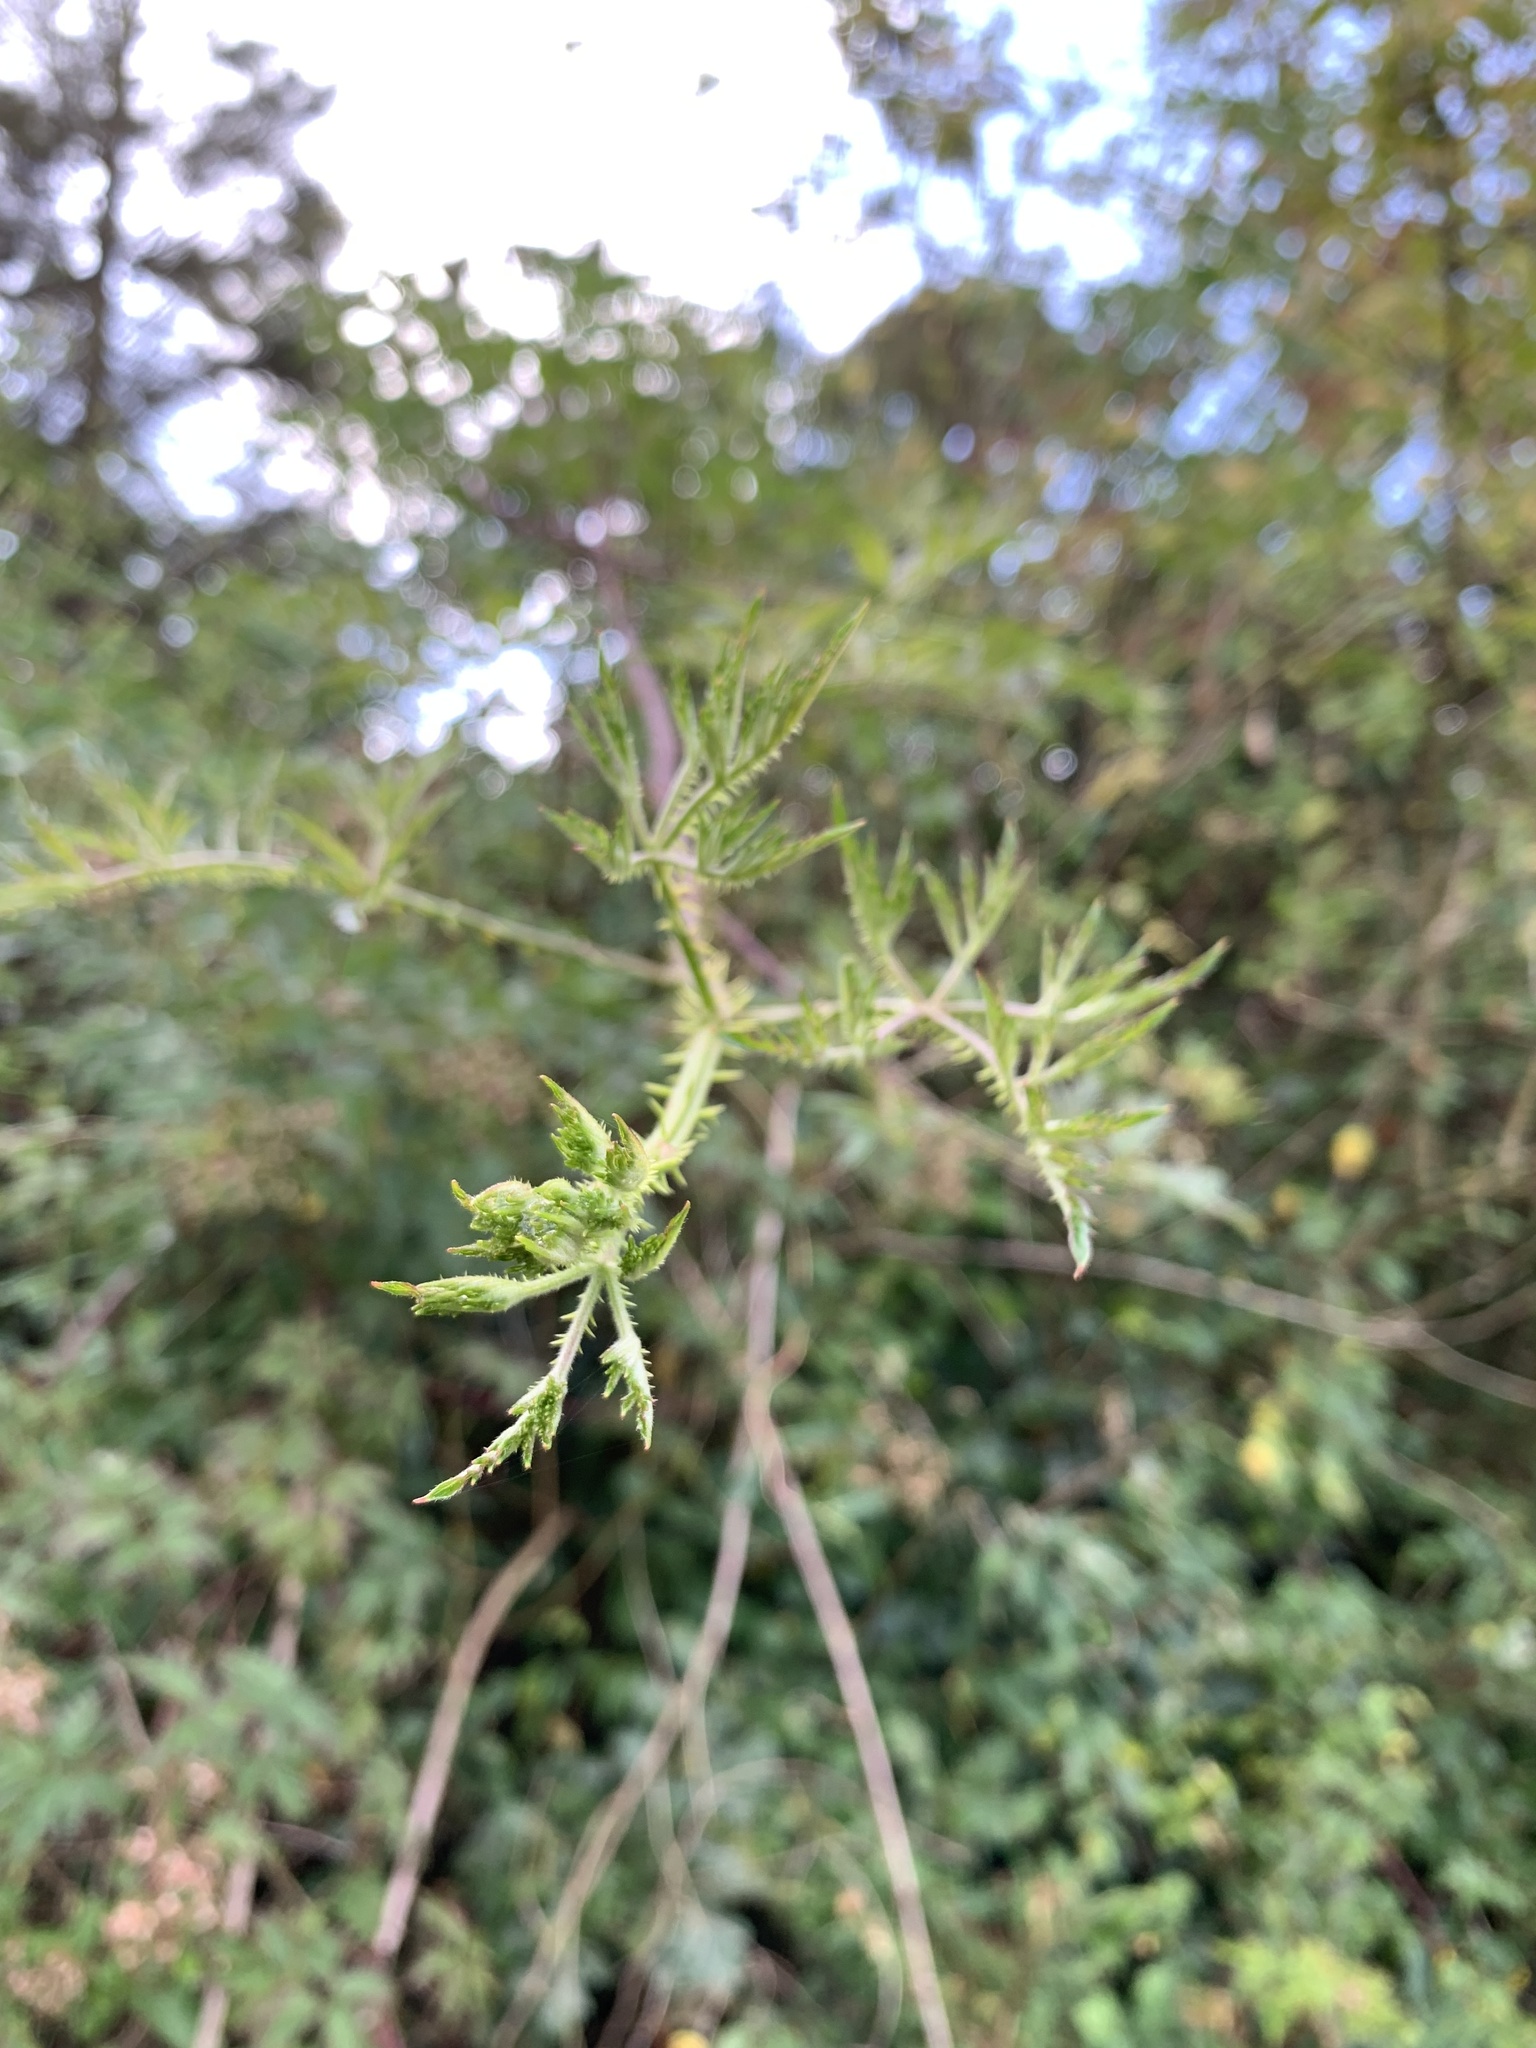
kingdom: Plantae
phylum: Tracheophyta
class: Magnoliopsida
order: Rosales
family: Rosaceae
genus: Rubus
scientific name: Rubus laciniatus
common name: Evergreen blackberry
